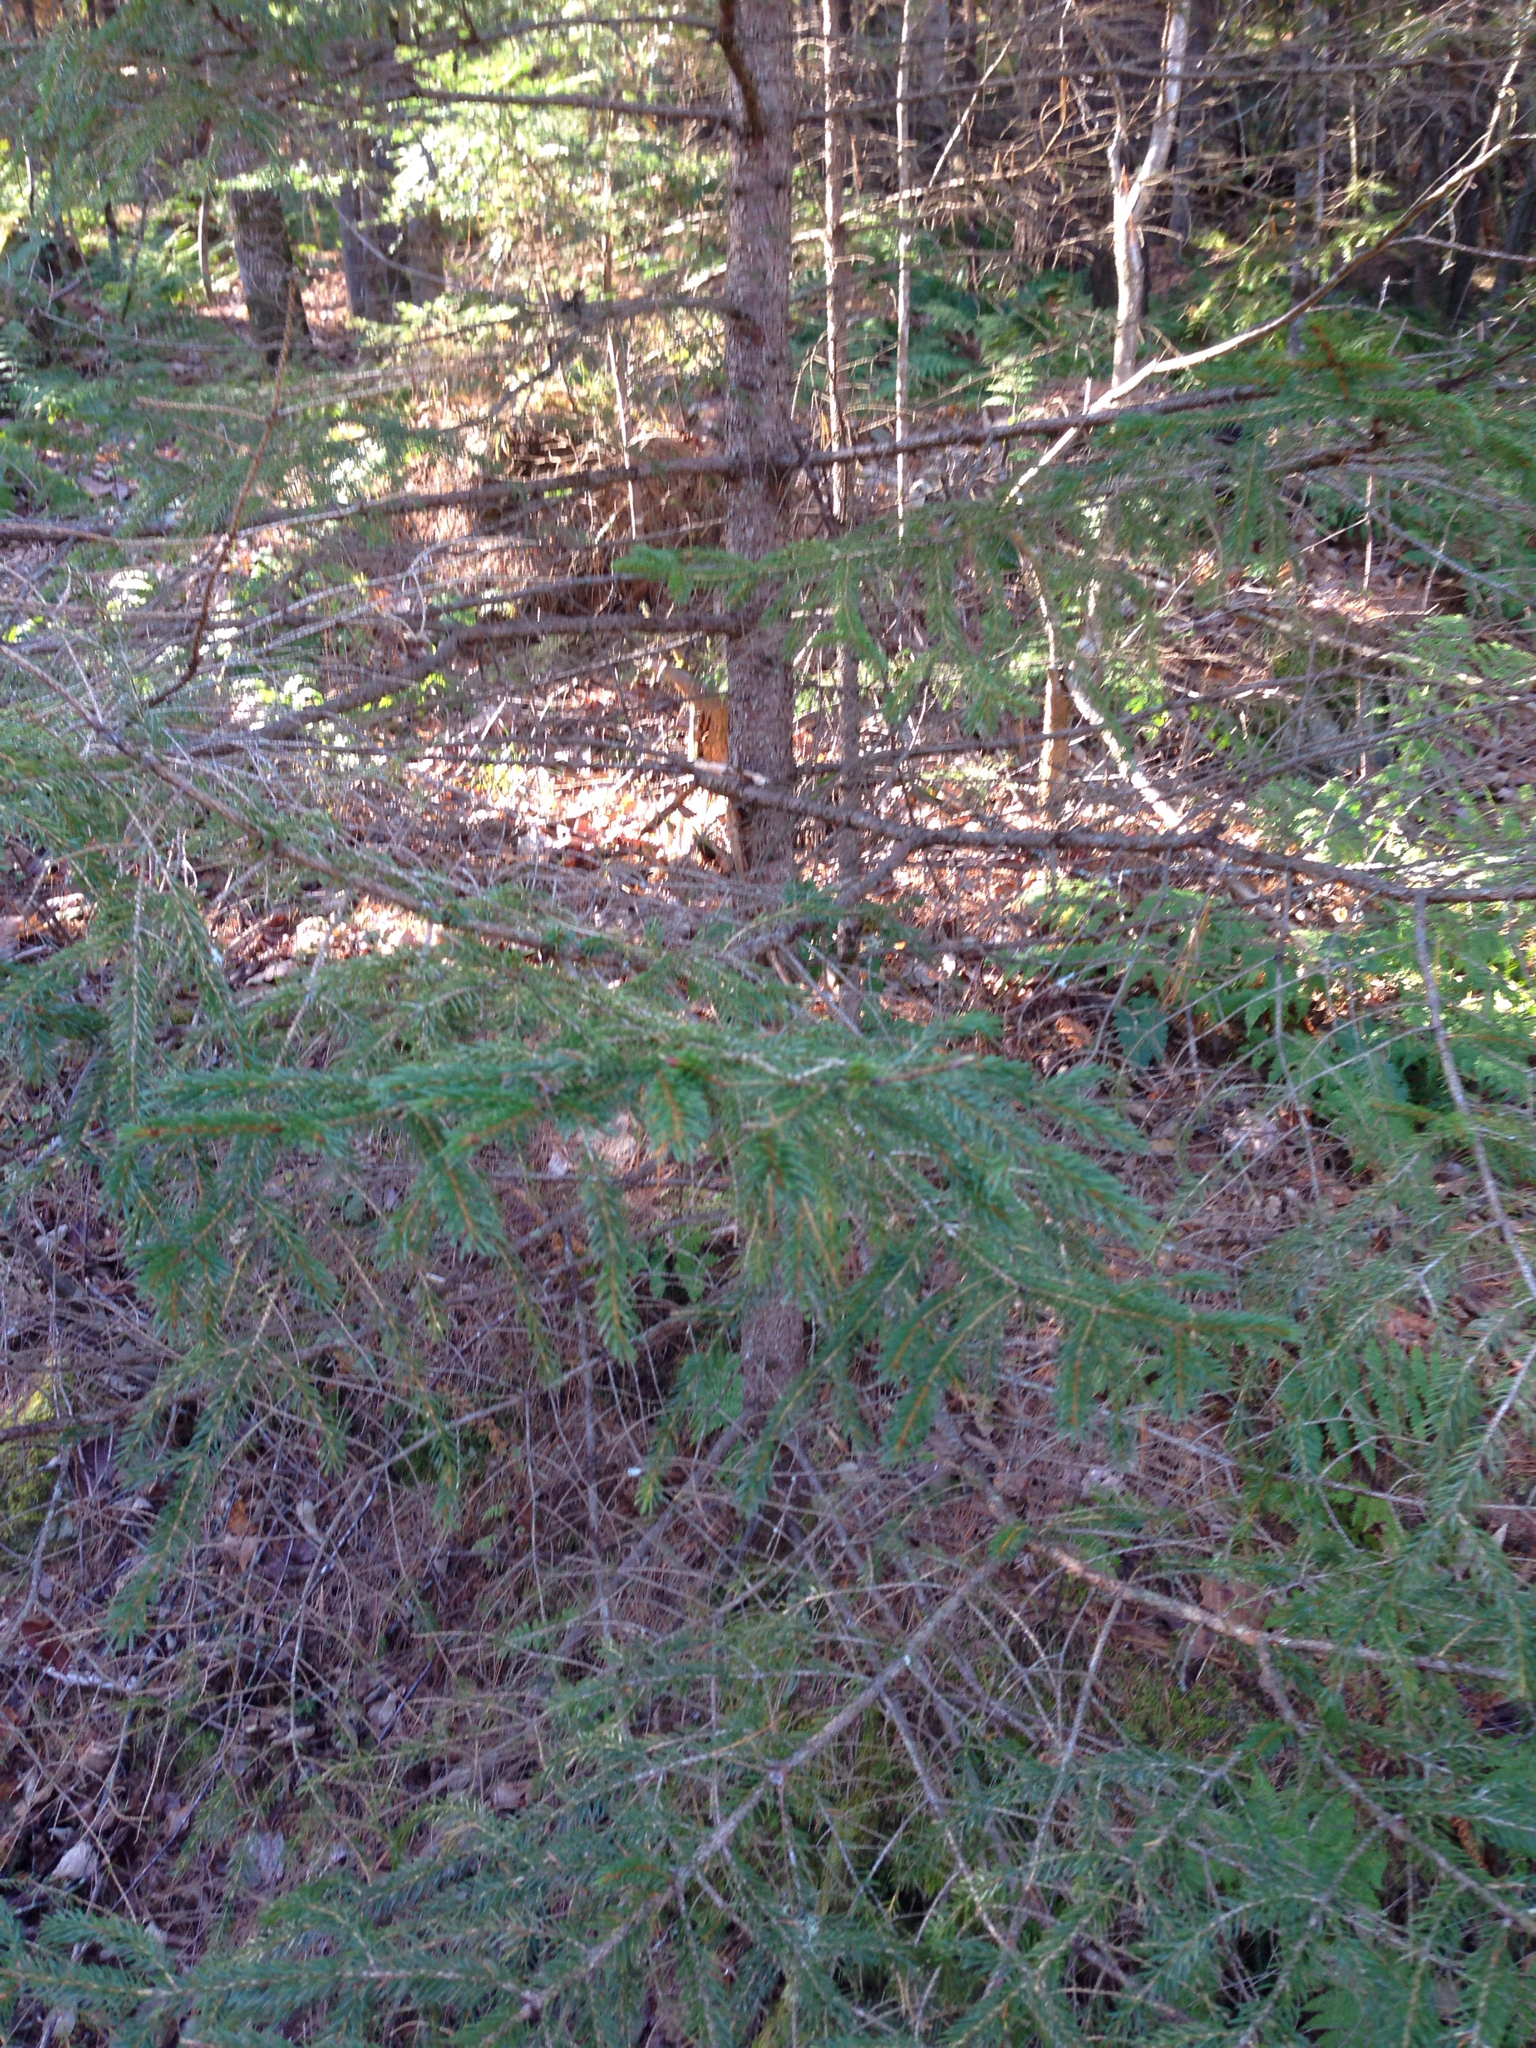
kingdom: Plantae
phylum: Tracheophyta
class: Pinopsida
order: Pinales
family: Pinaceae
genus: Picea
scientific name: Picea rubens
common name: Red spruce
